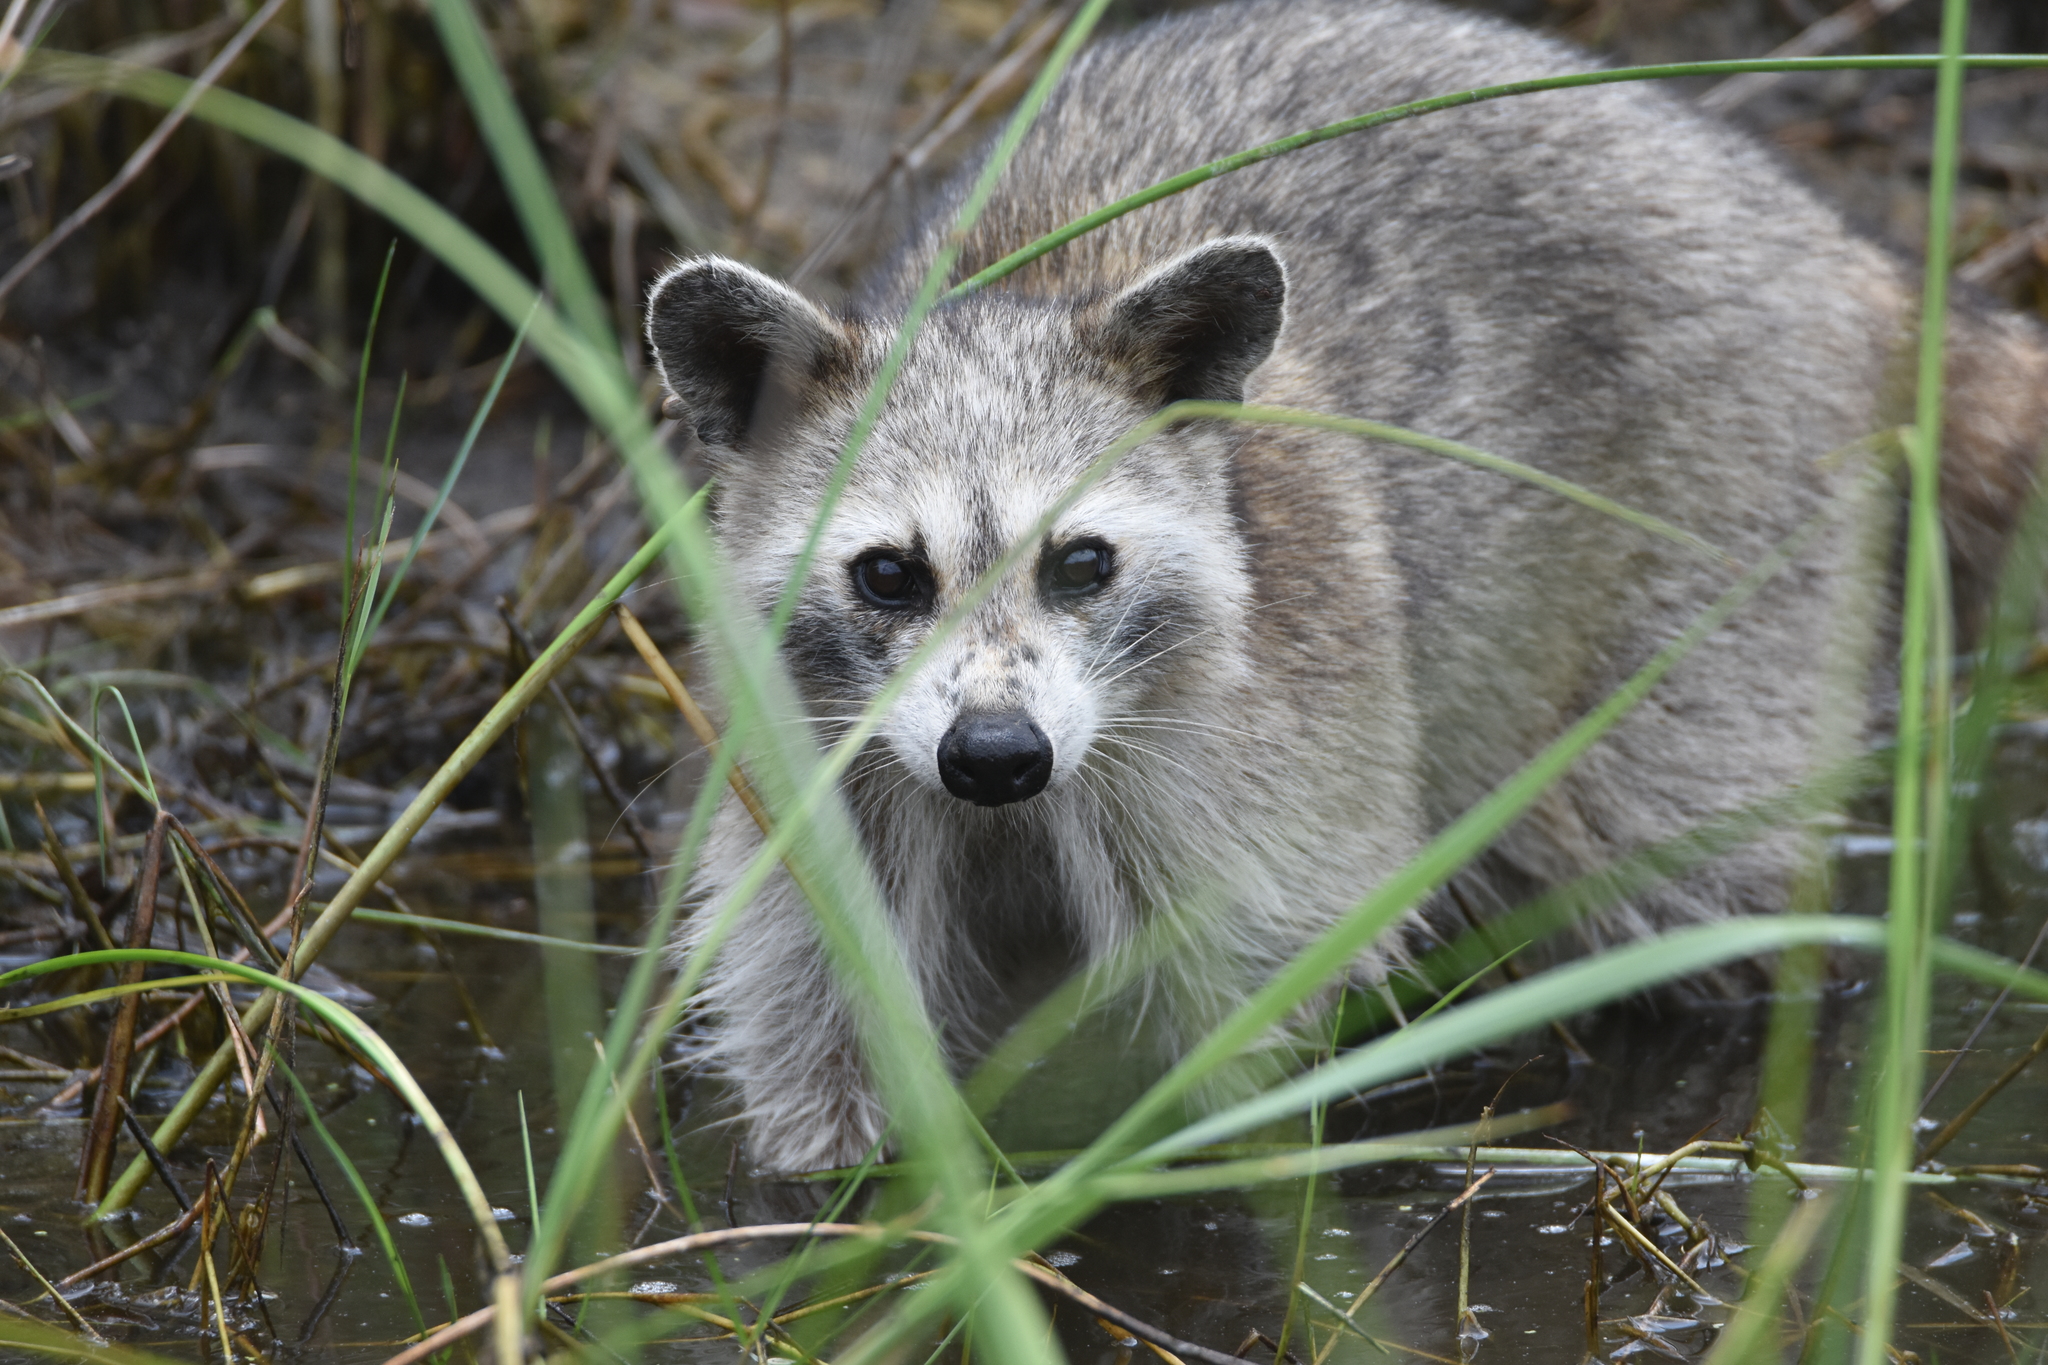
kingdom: Animalia
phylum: Chordata
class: Mammalia
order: Carnivora
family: Procyonidae
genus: Procyon
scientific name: Procyon lotor
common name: Raccoon
